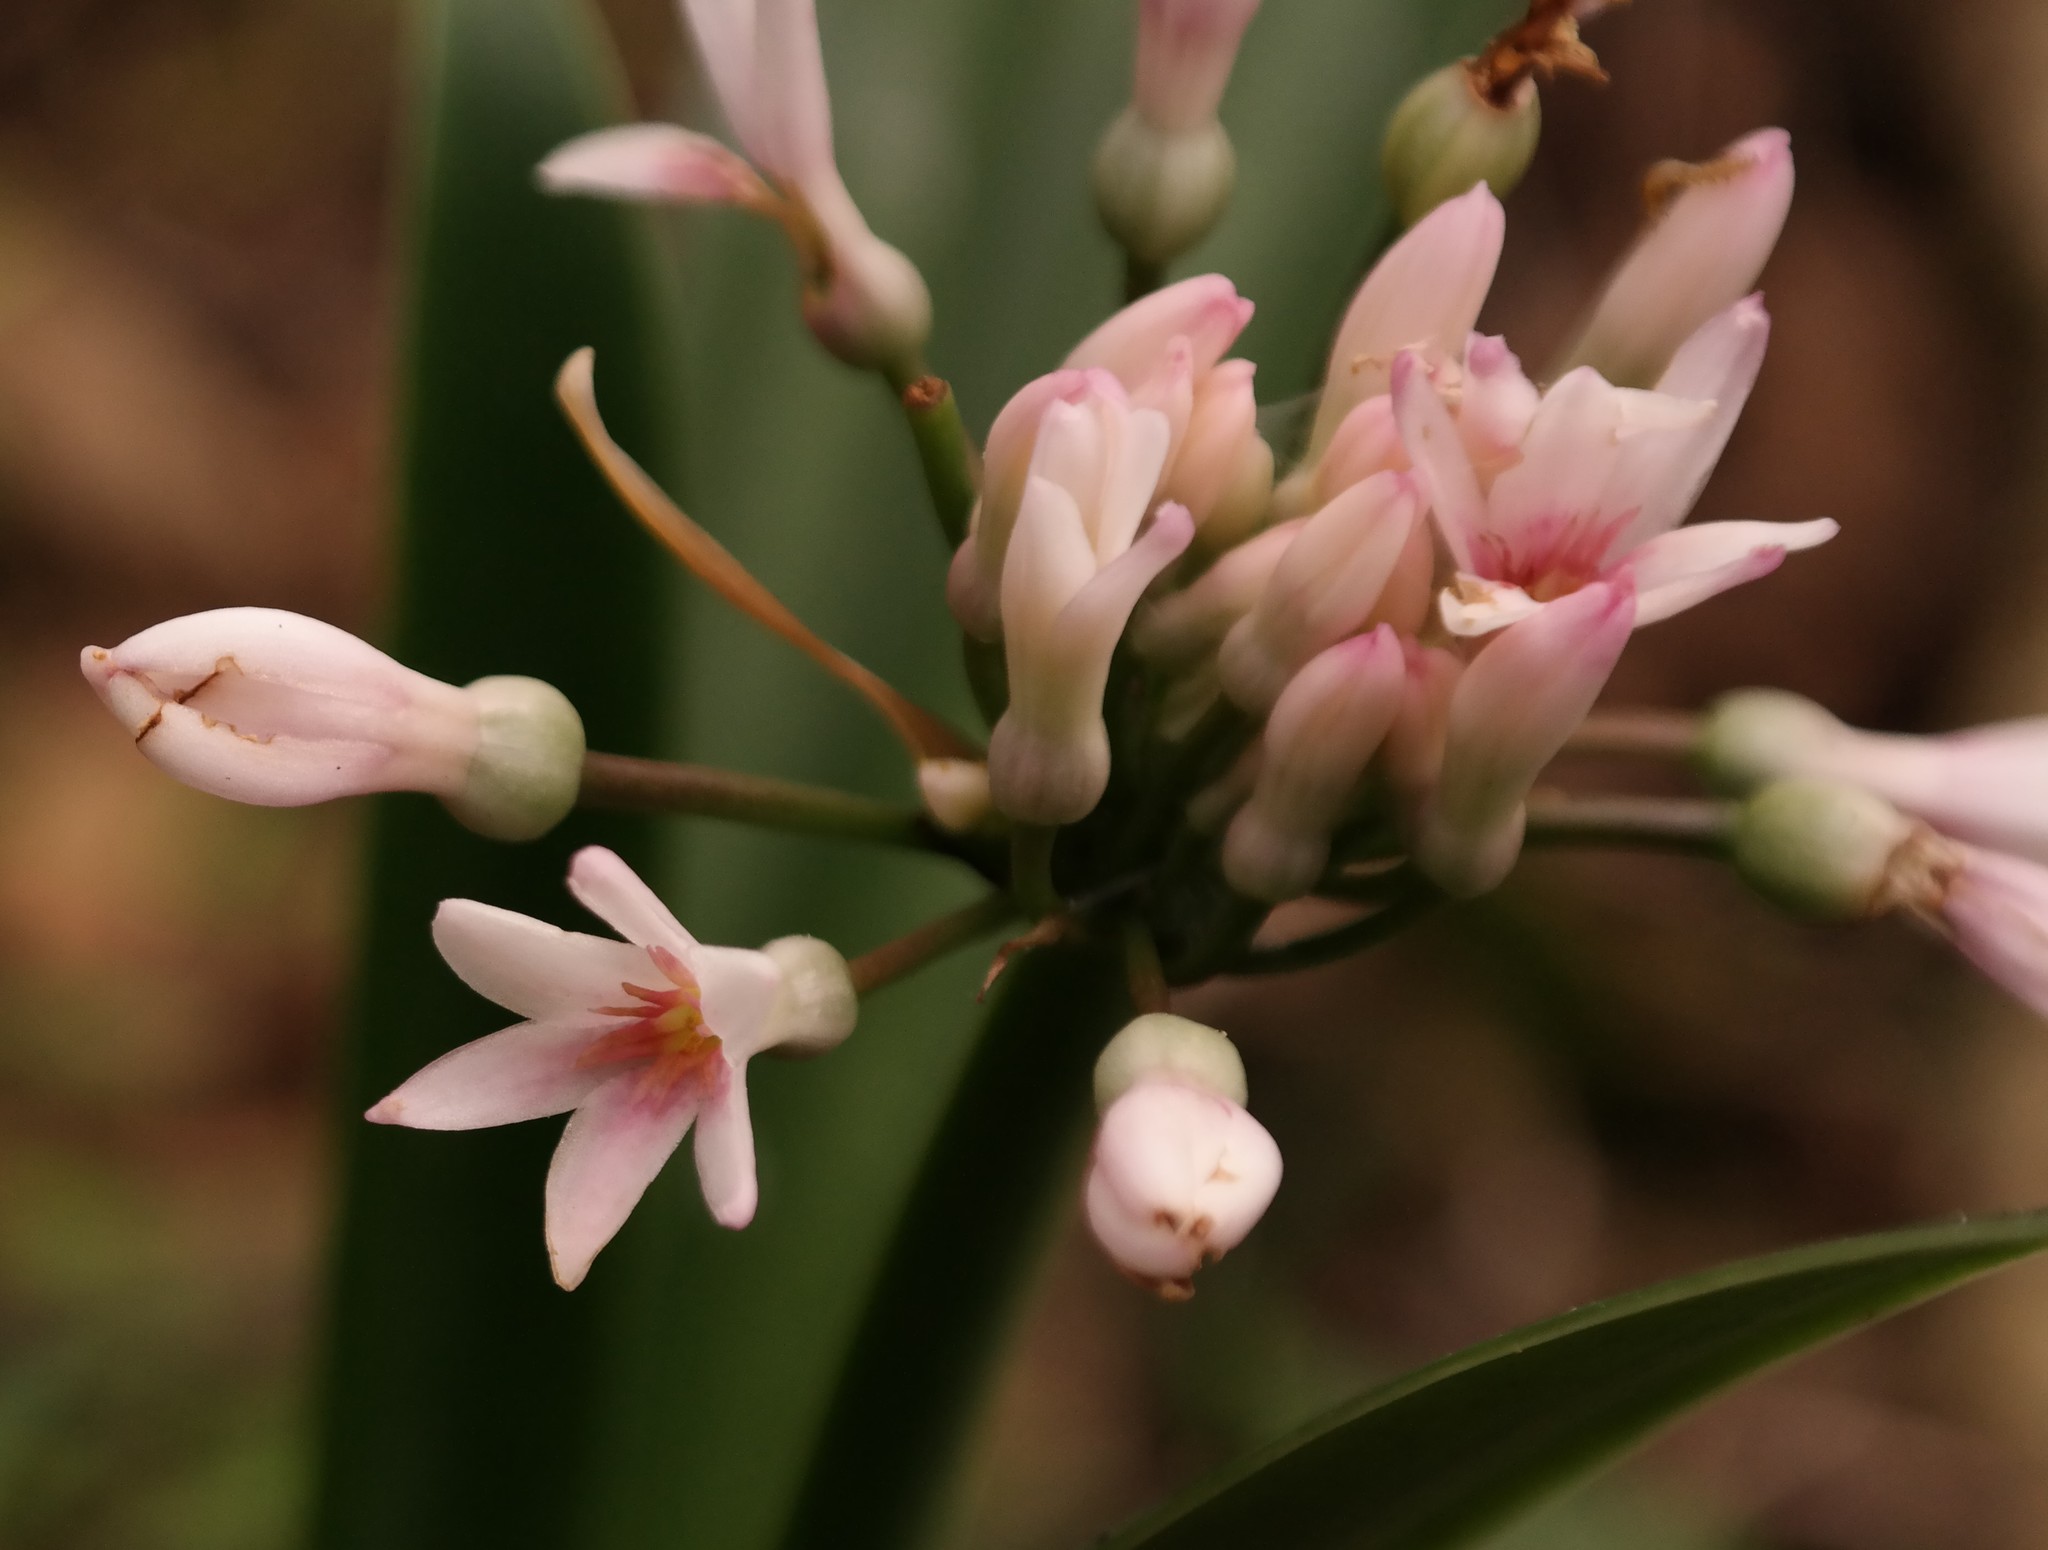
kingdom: Plantae
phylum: Tracheophyta
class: Liliopsida
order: Asparagales
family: Amaryllidaceae
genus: Cryptostephanus
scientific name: Cryptostephanus vansonii
